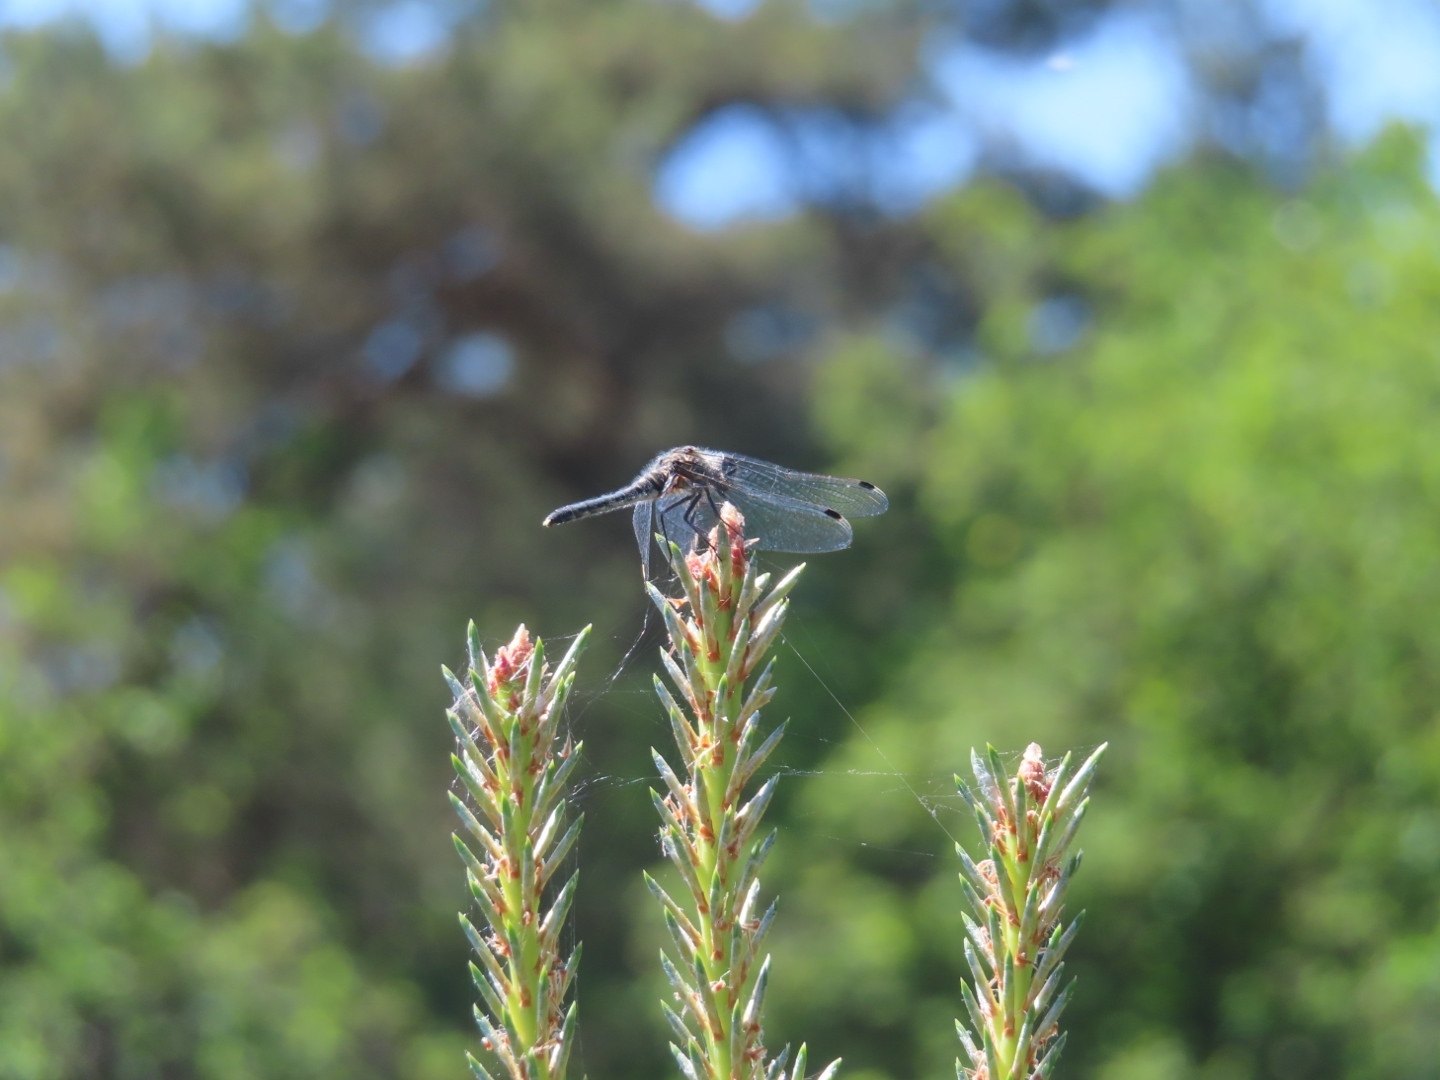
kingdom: Animalia
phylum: Arthropoda
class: Insecta
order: Odonata
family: Libellulidae
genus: Leucorrhinia
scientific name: Leucorrhinia albifrons
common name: Dark whiteface
